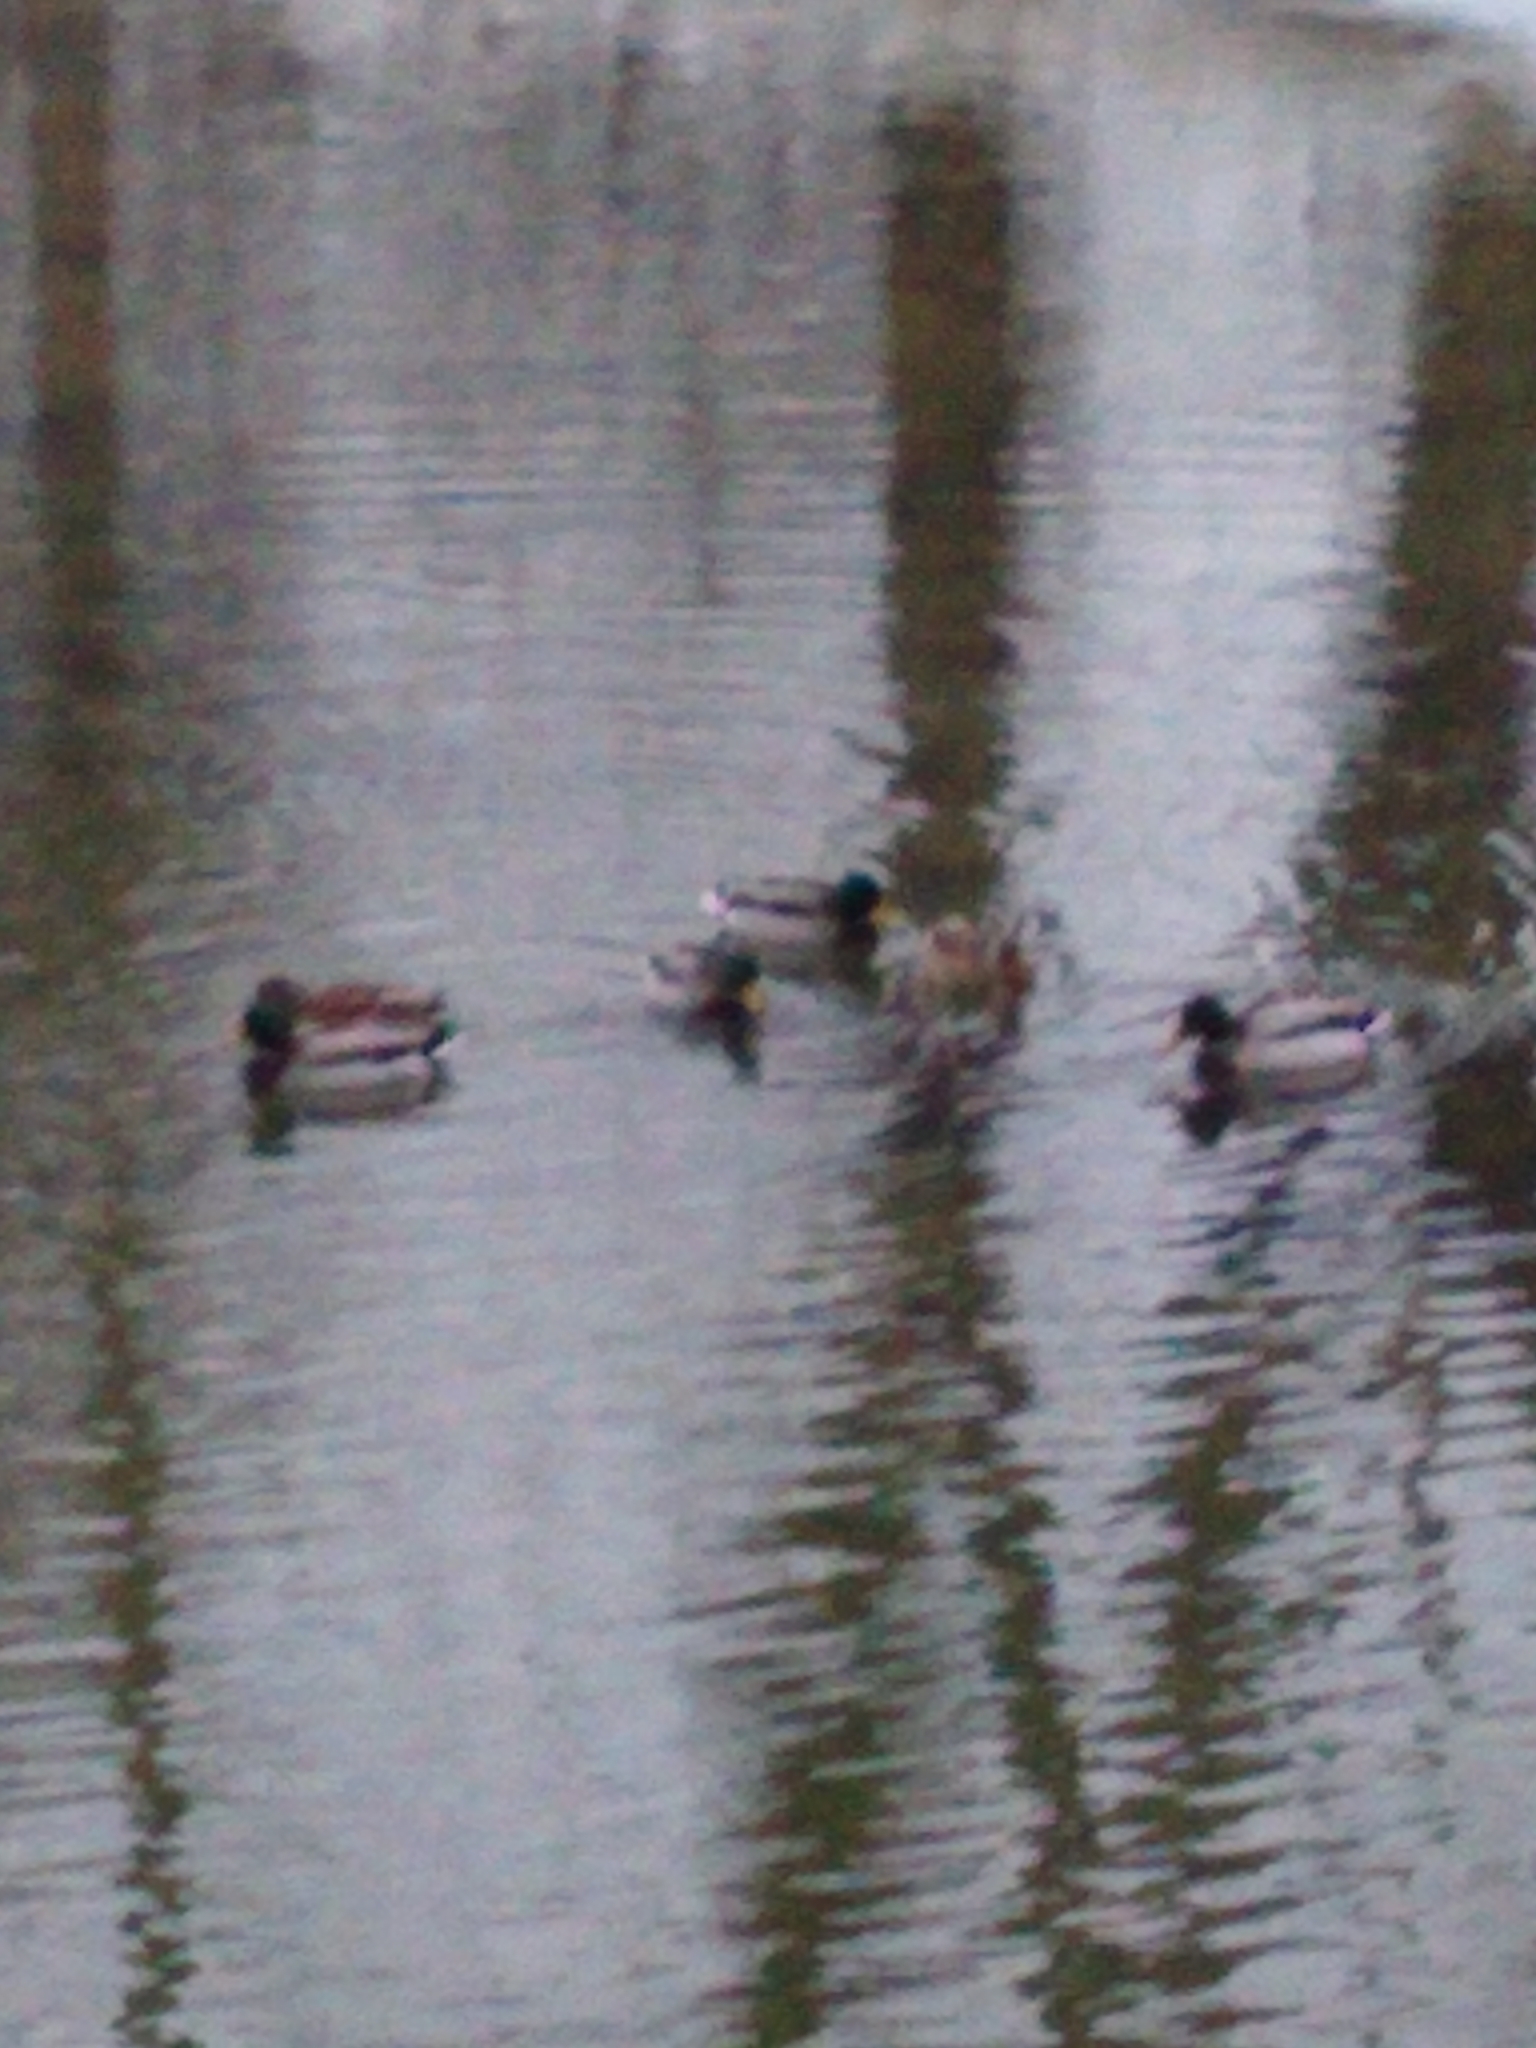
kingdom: Animalia
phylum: Chordata
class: Aves
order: Anseriformes
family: Anatidae
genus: Anas
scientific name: Anas platyrhynchos
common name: Mallard
